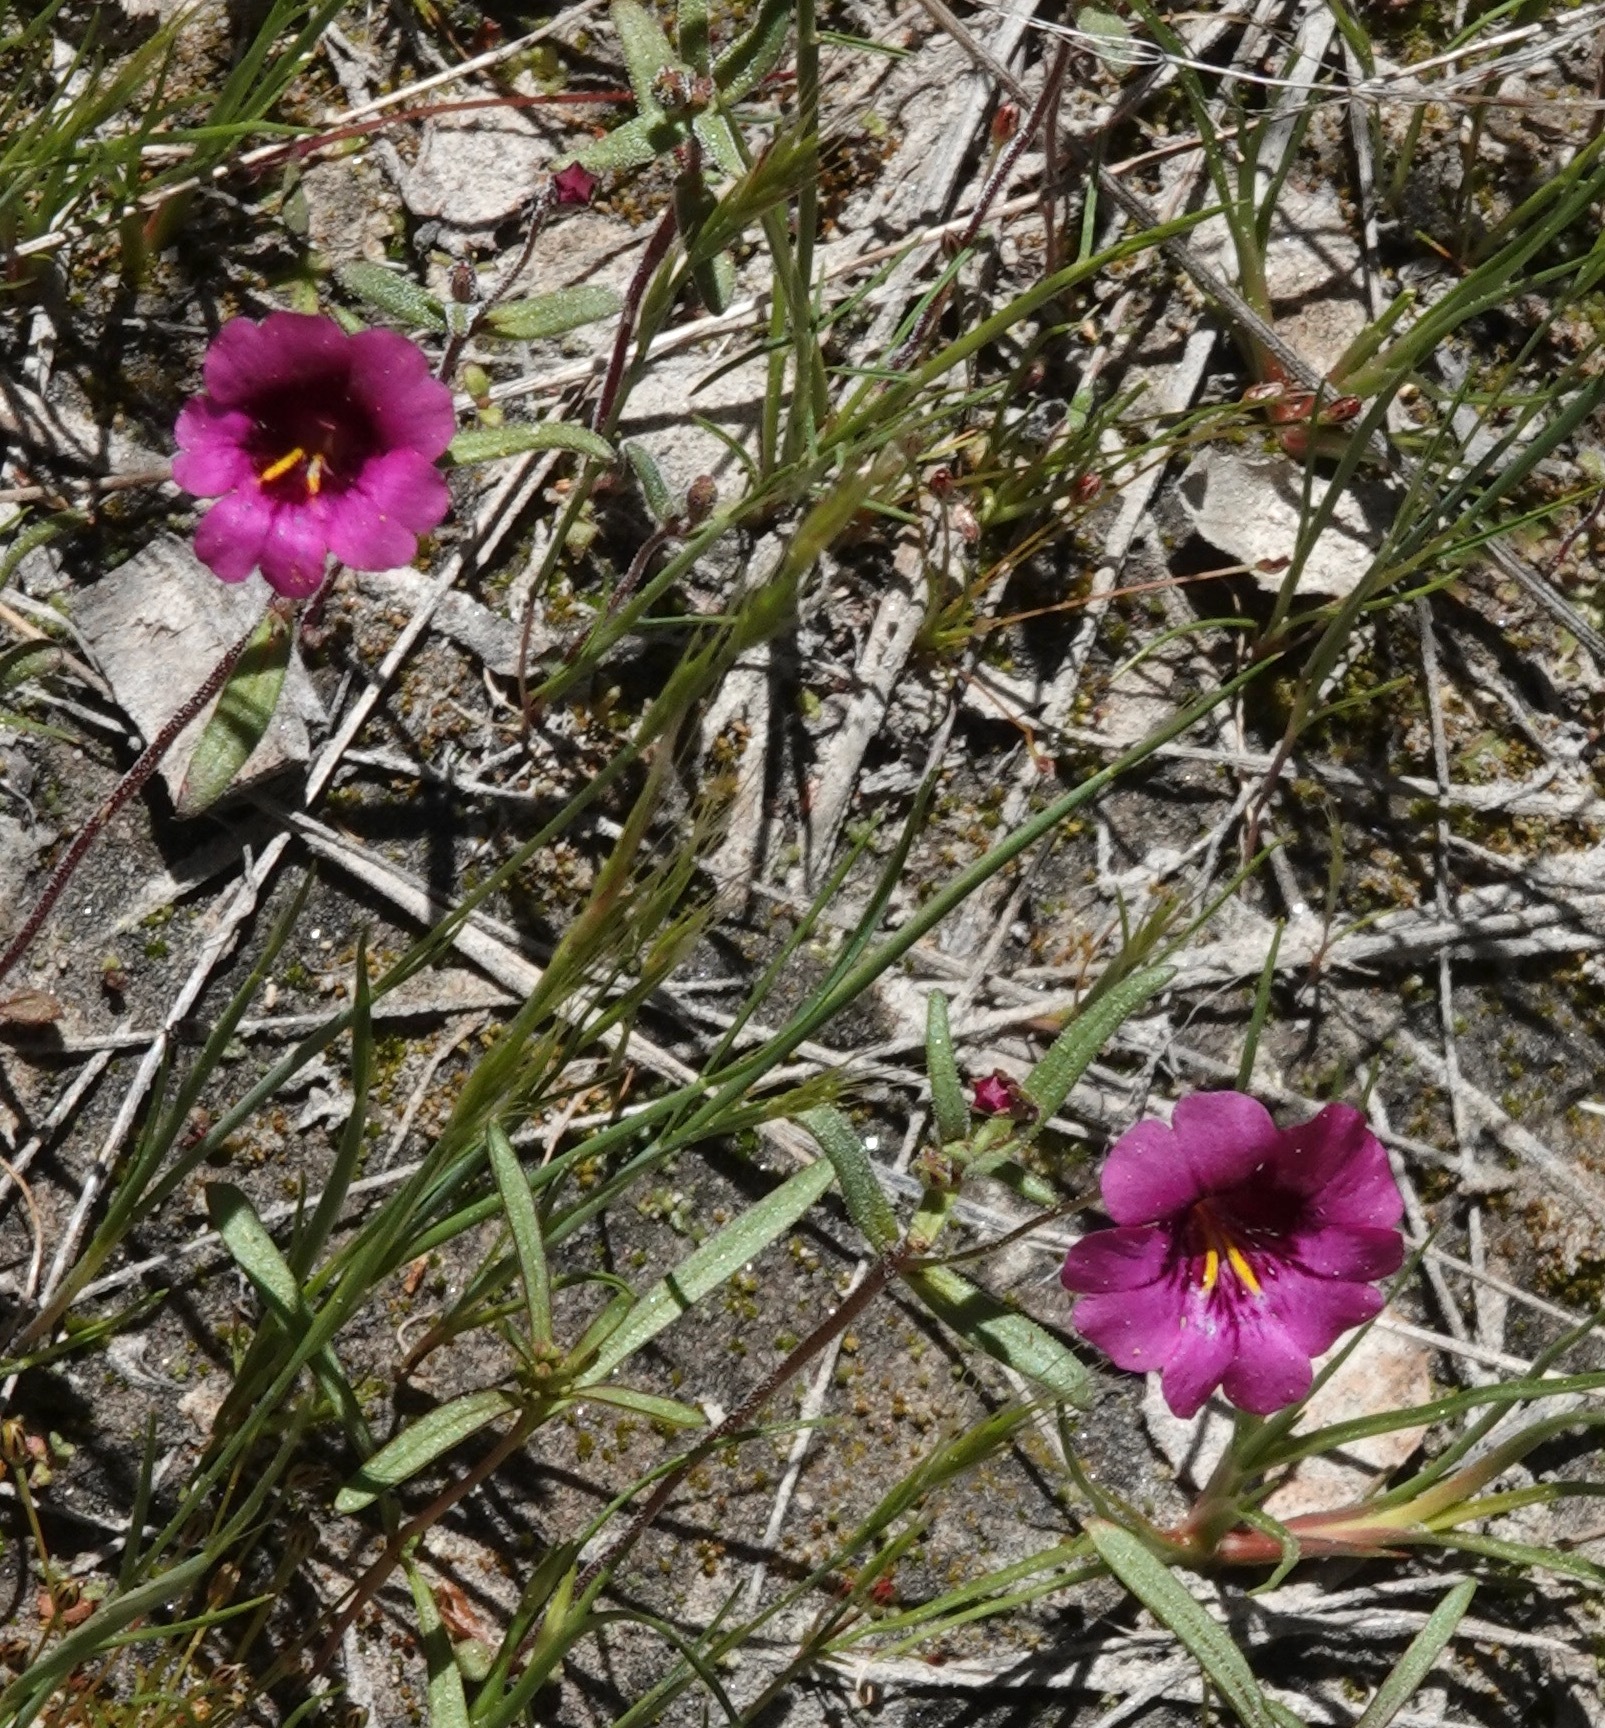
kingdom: Plantae
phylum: Tracheophyta
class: Magnoliopsida
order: Lamiales
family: Phrymaceae
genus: Erythranthe
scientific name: Erythranthe palmeri
